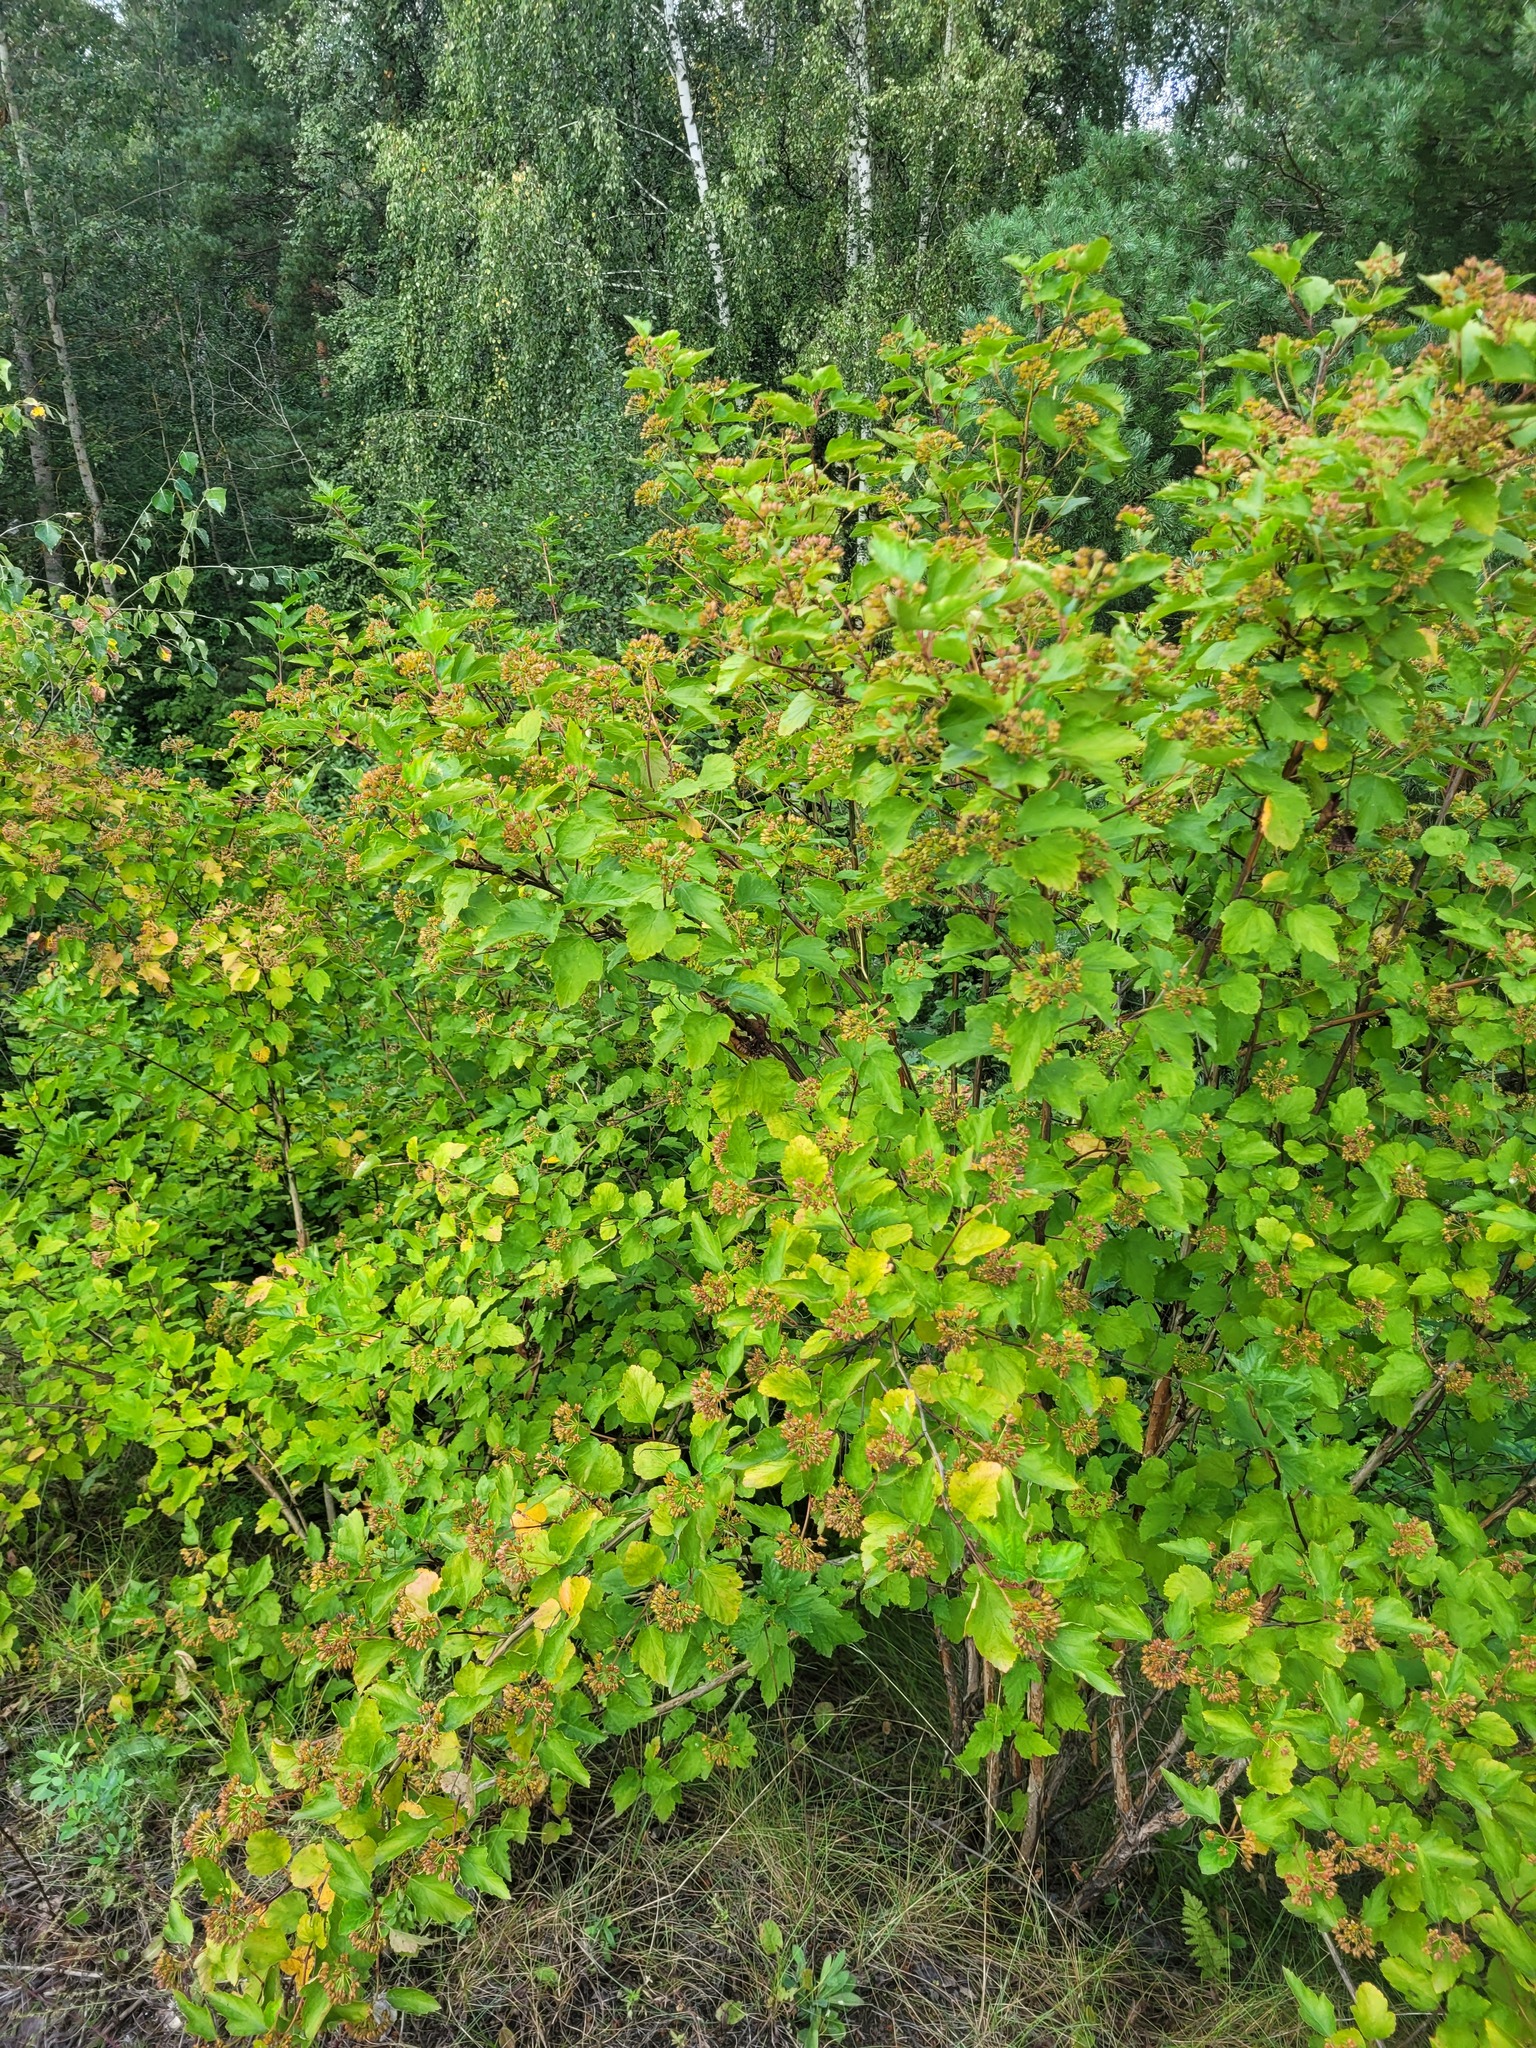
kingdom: Plantae
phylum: Tracheophyta
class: Magnoliopsida
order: Rosales
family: Rosaceae
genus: Physocarpus
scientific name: Physocarpus opulifolius
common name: Ninebark
